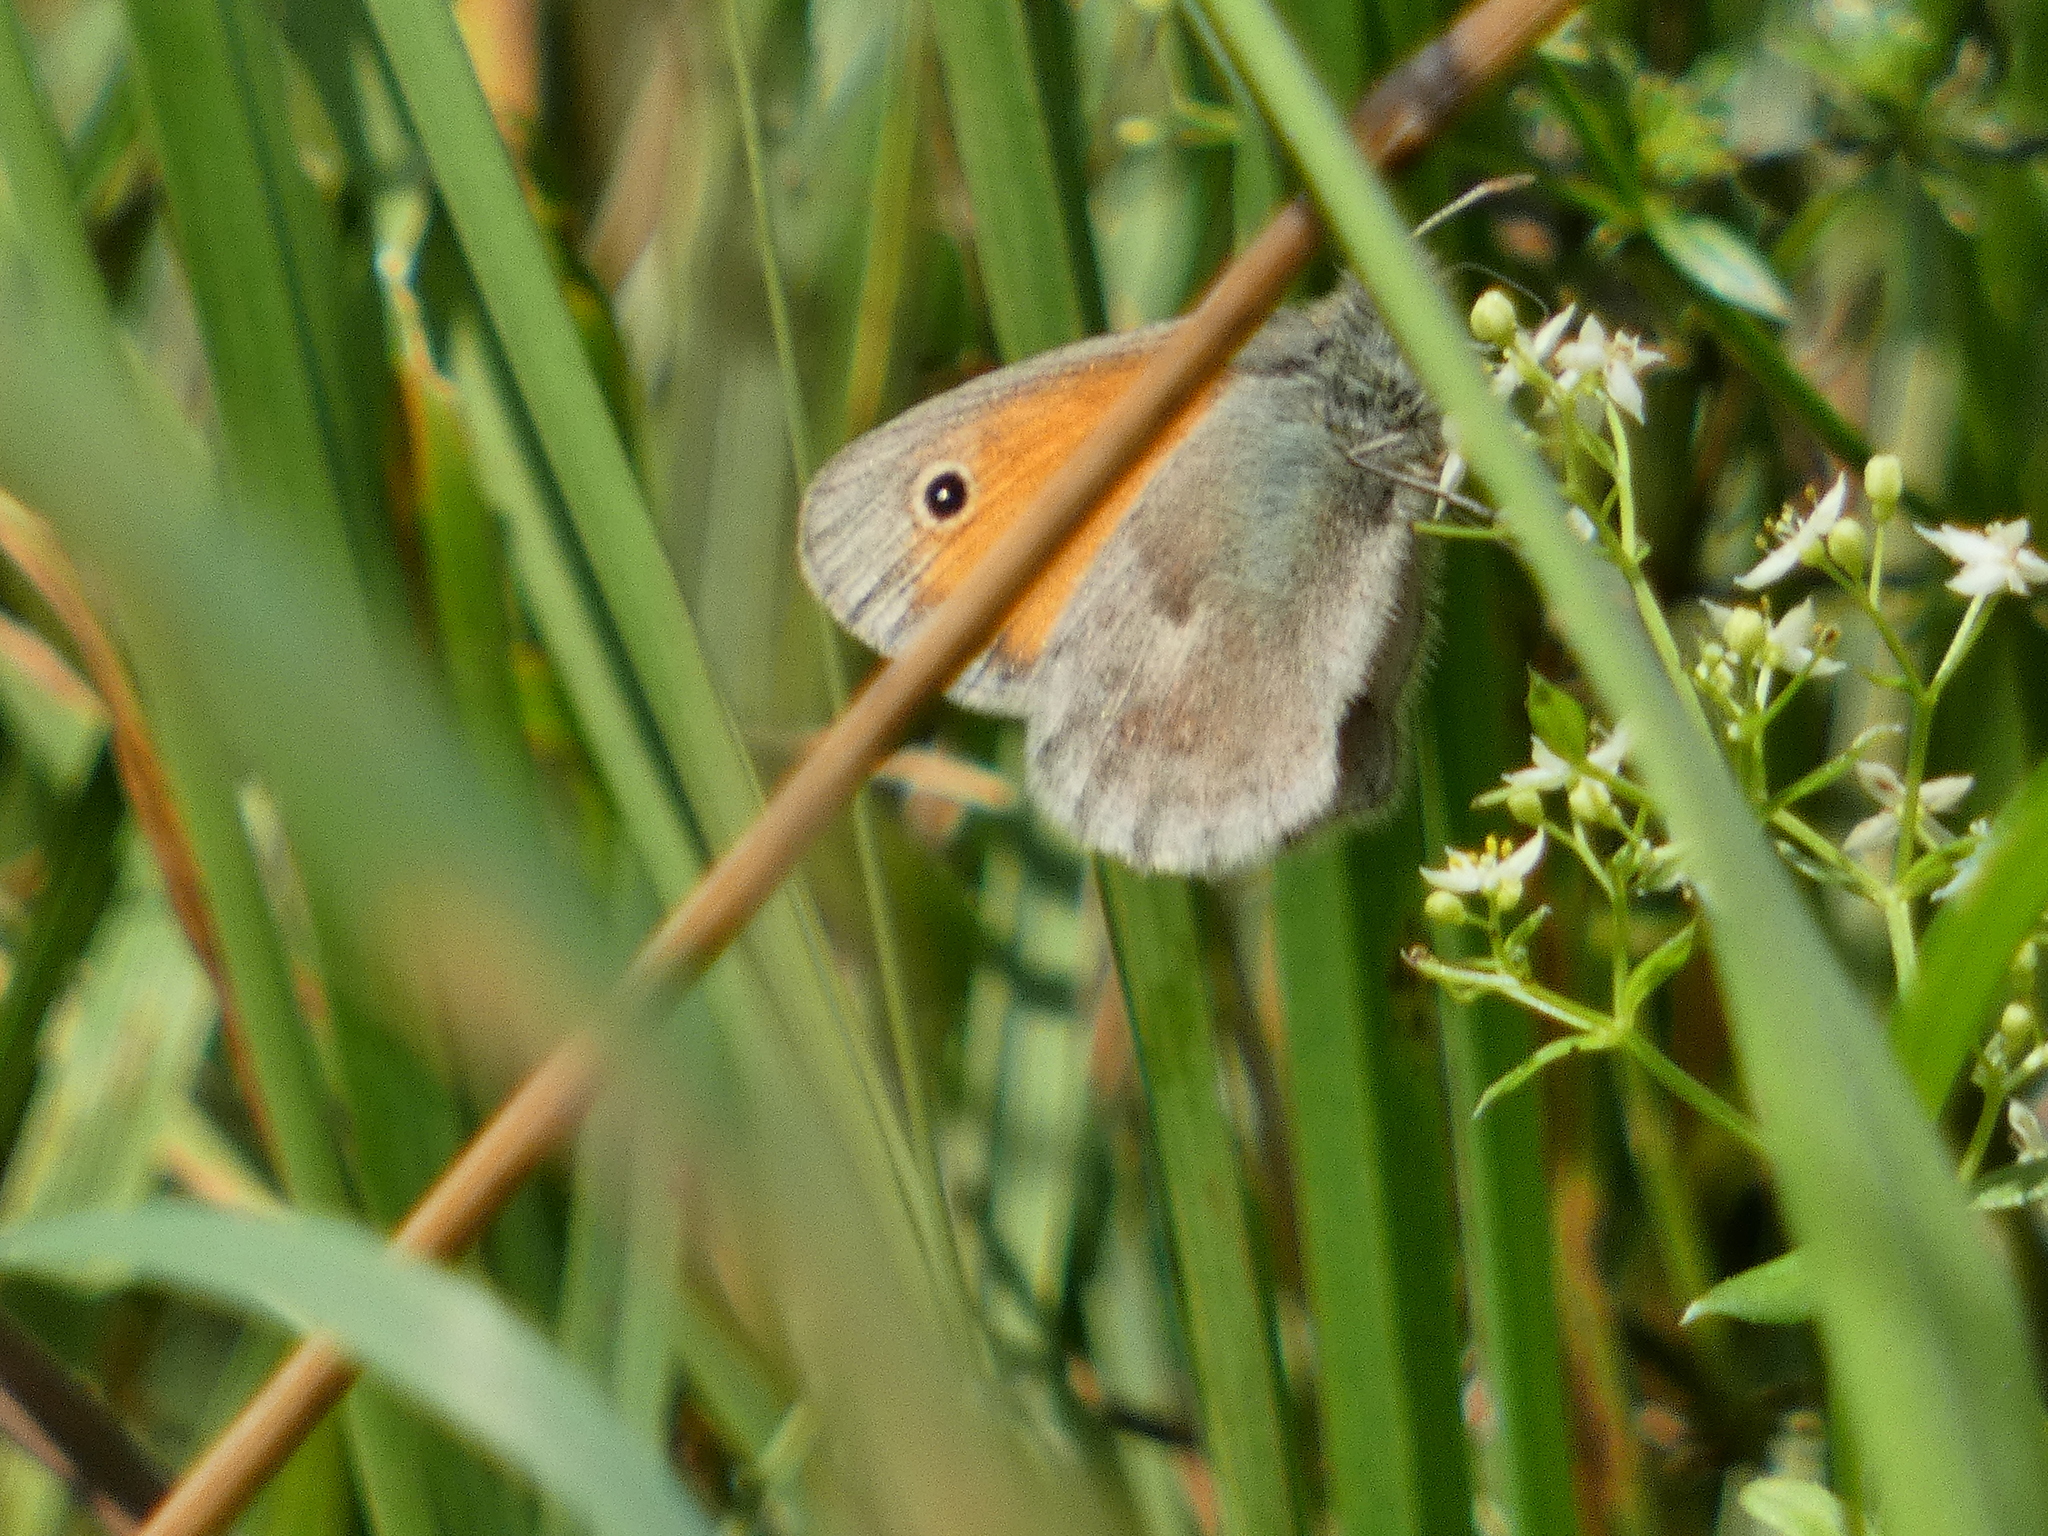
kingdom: Animalia
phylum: Arthropoda
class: Insecta
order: Lepidoptera
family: Nymphalidae
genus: Coenonympha
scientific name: Coenonympha pamphilus
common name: Small heath
